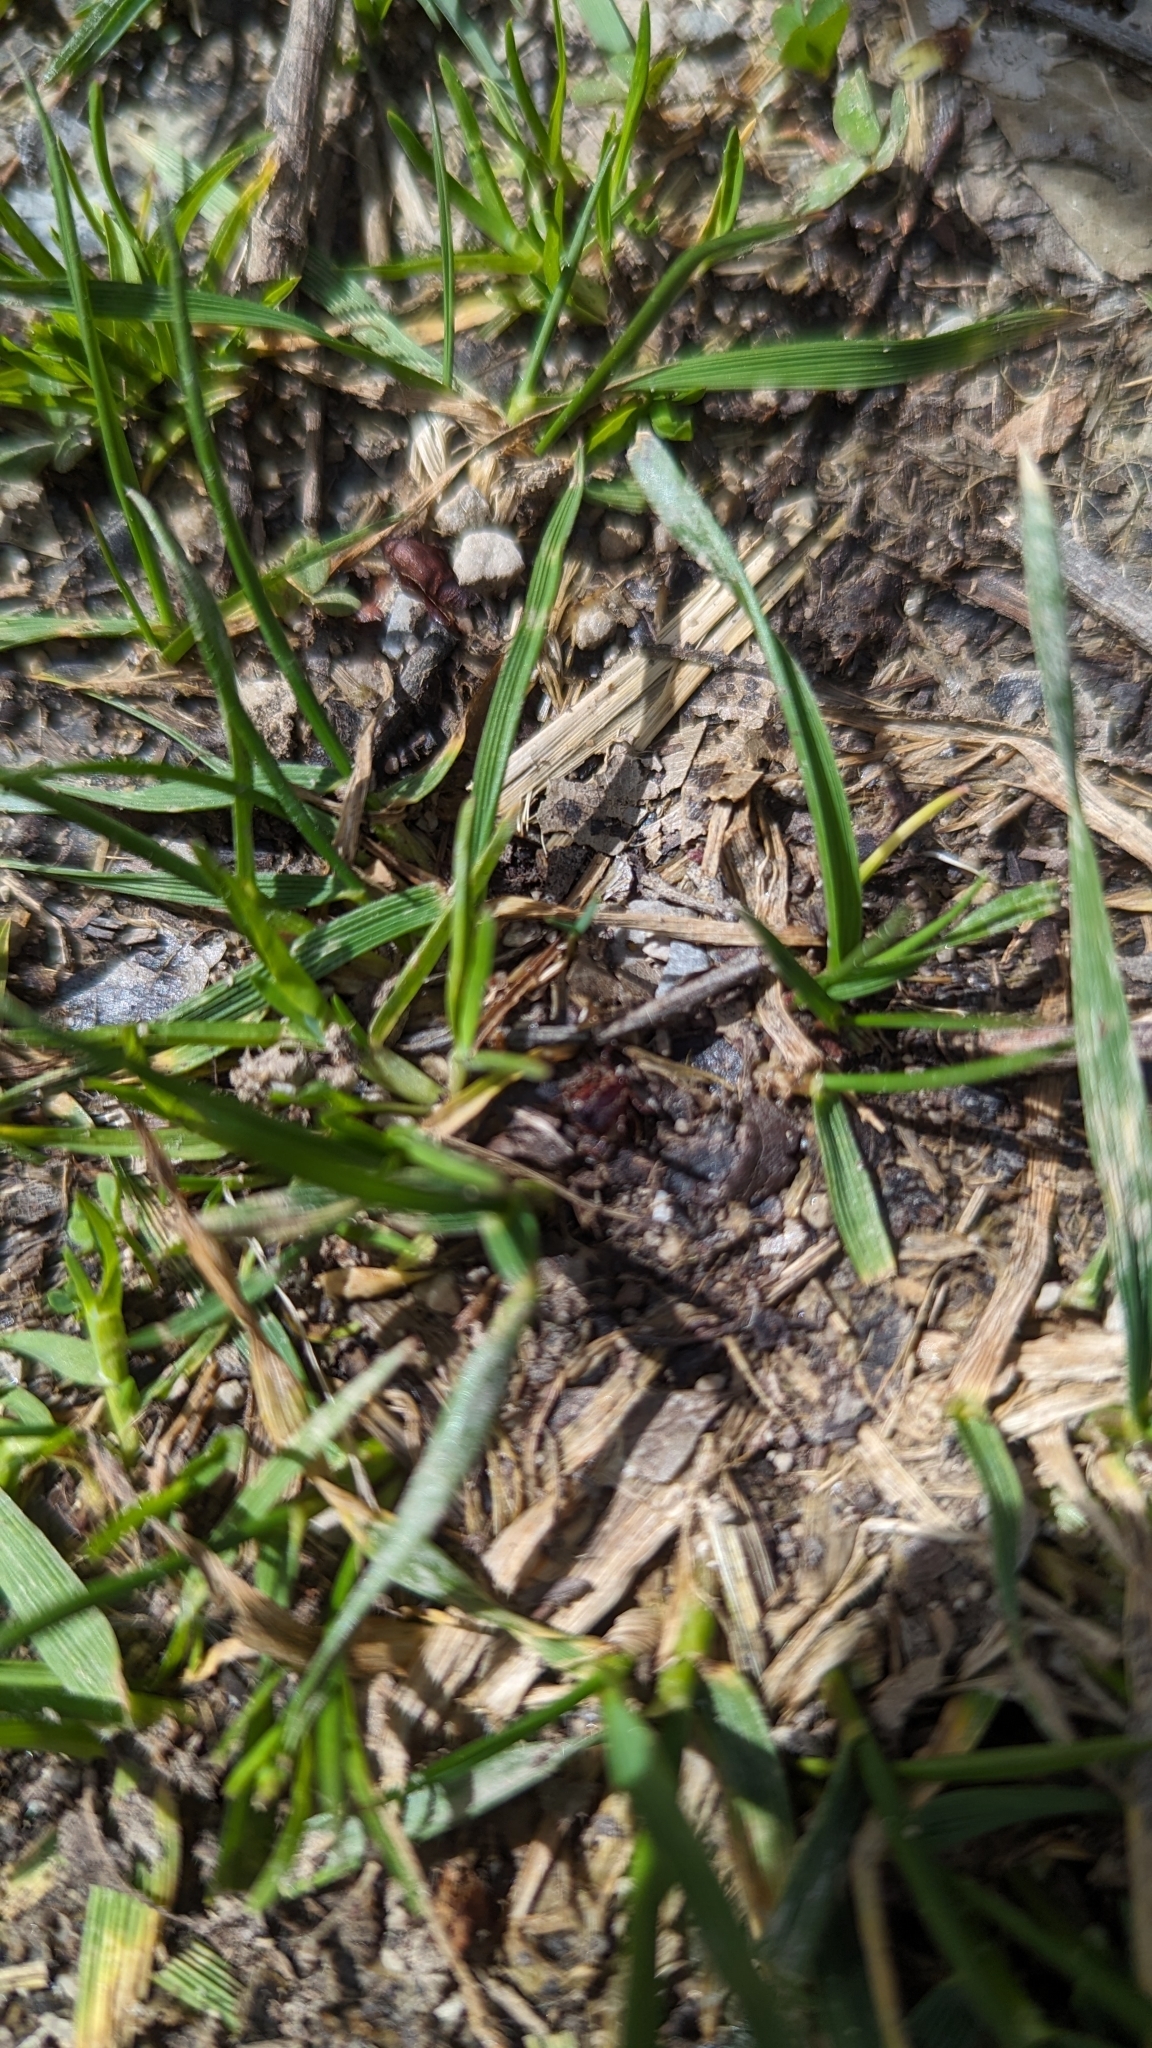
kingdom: Animalia
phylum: Arthropoda
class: Arachnida
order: Ixodida
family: Ixodidae
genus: Dermacentor
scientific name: Dermacentor variabilis
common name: American dog tick
